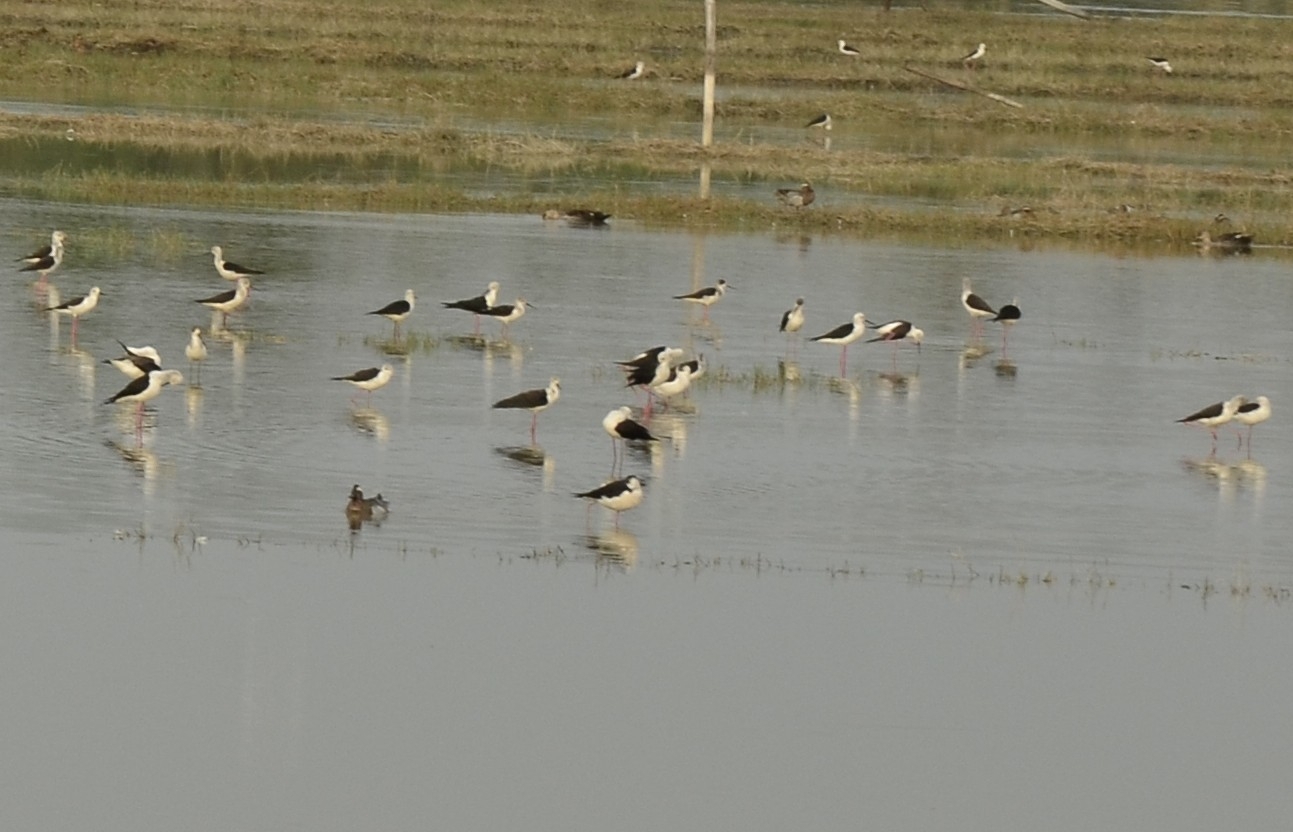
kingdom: Animalia
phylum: Chordata
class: Aves
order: Charadriiformes
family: Recurvirostridae
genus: Himantopus
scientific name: Himantopus himantopus
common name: Black-winged stilt
